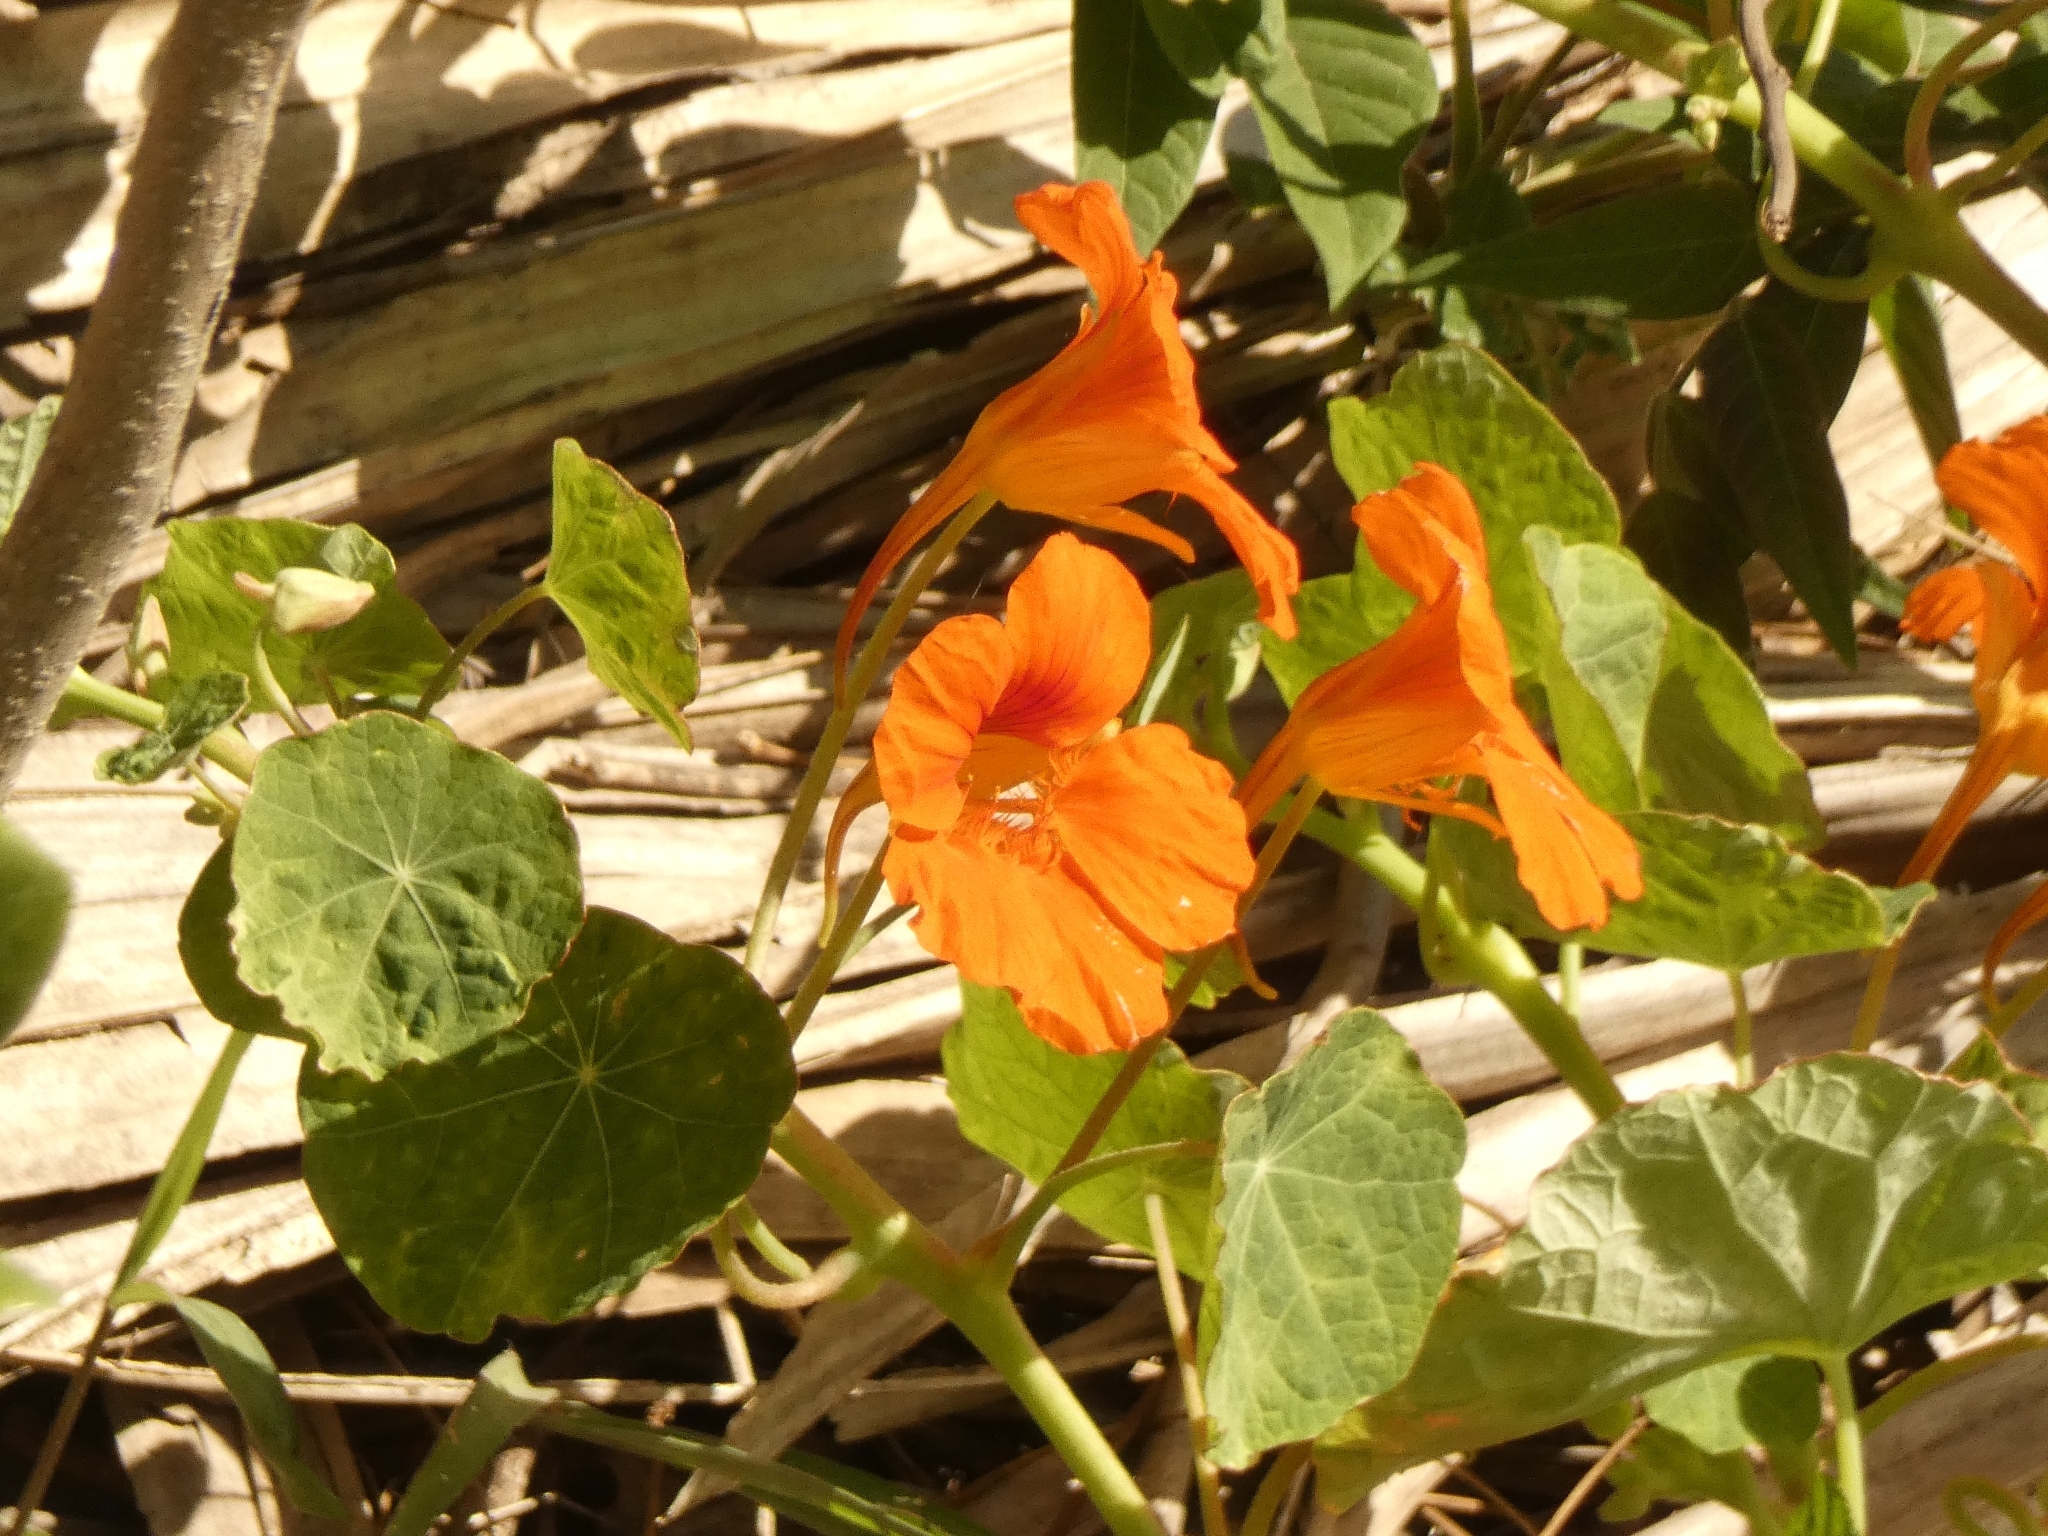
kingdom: Plantae
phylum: Tracheophyta
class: Magnoliopsida
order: Brassicales
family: Tropaeolaceae
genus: Tropaeolum
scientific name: Tropaeolum majus
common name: Nasturtium
